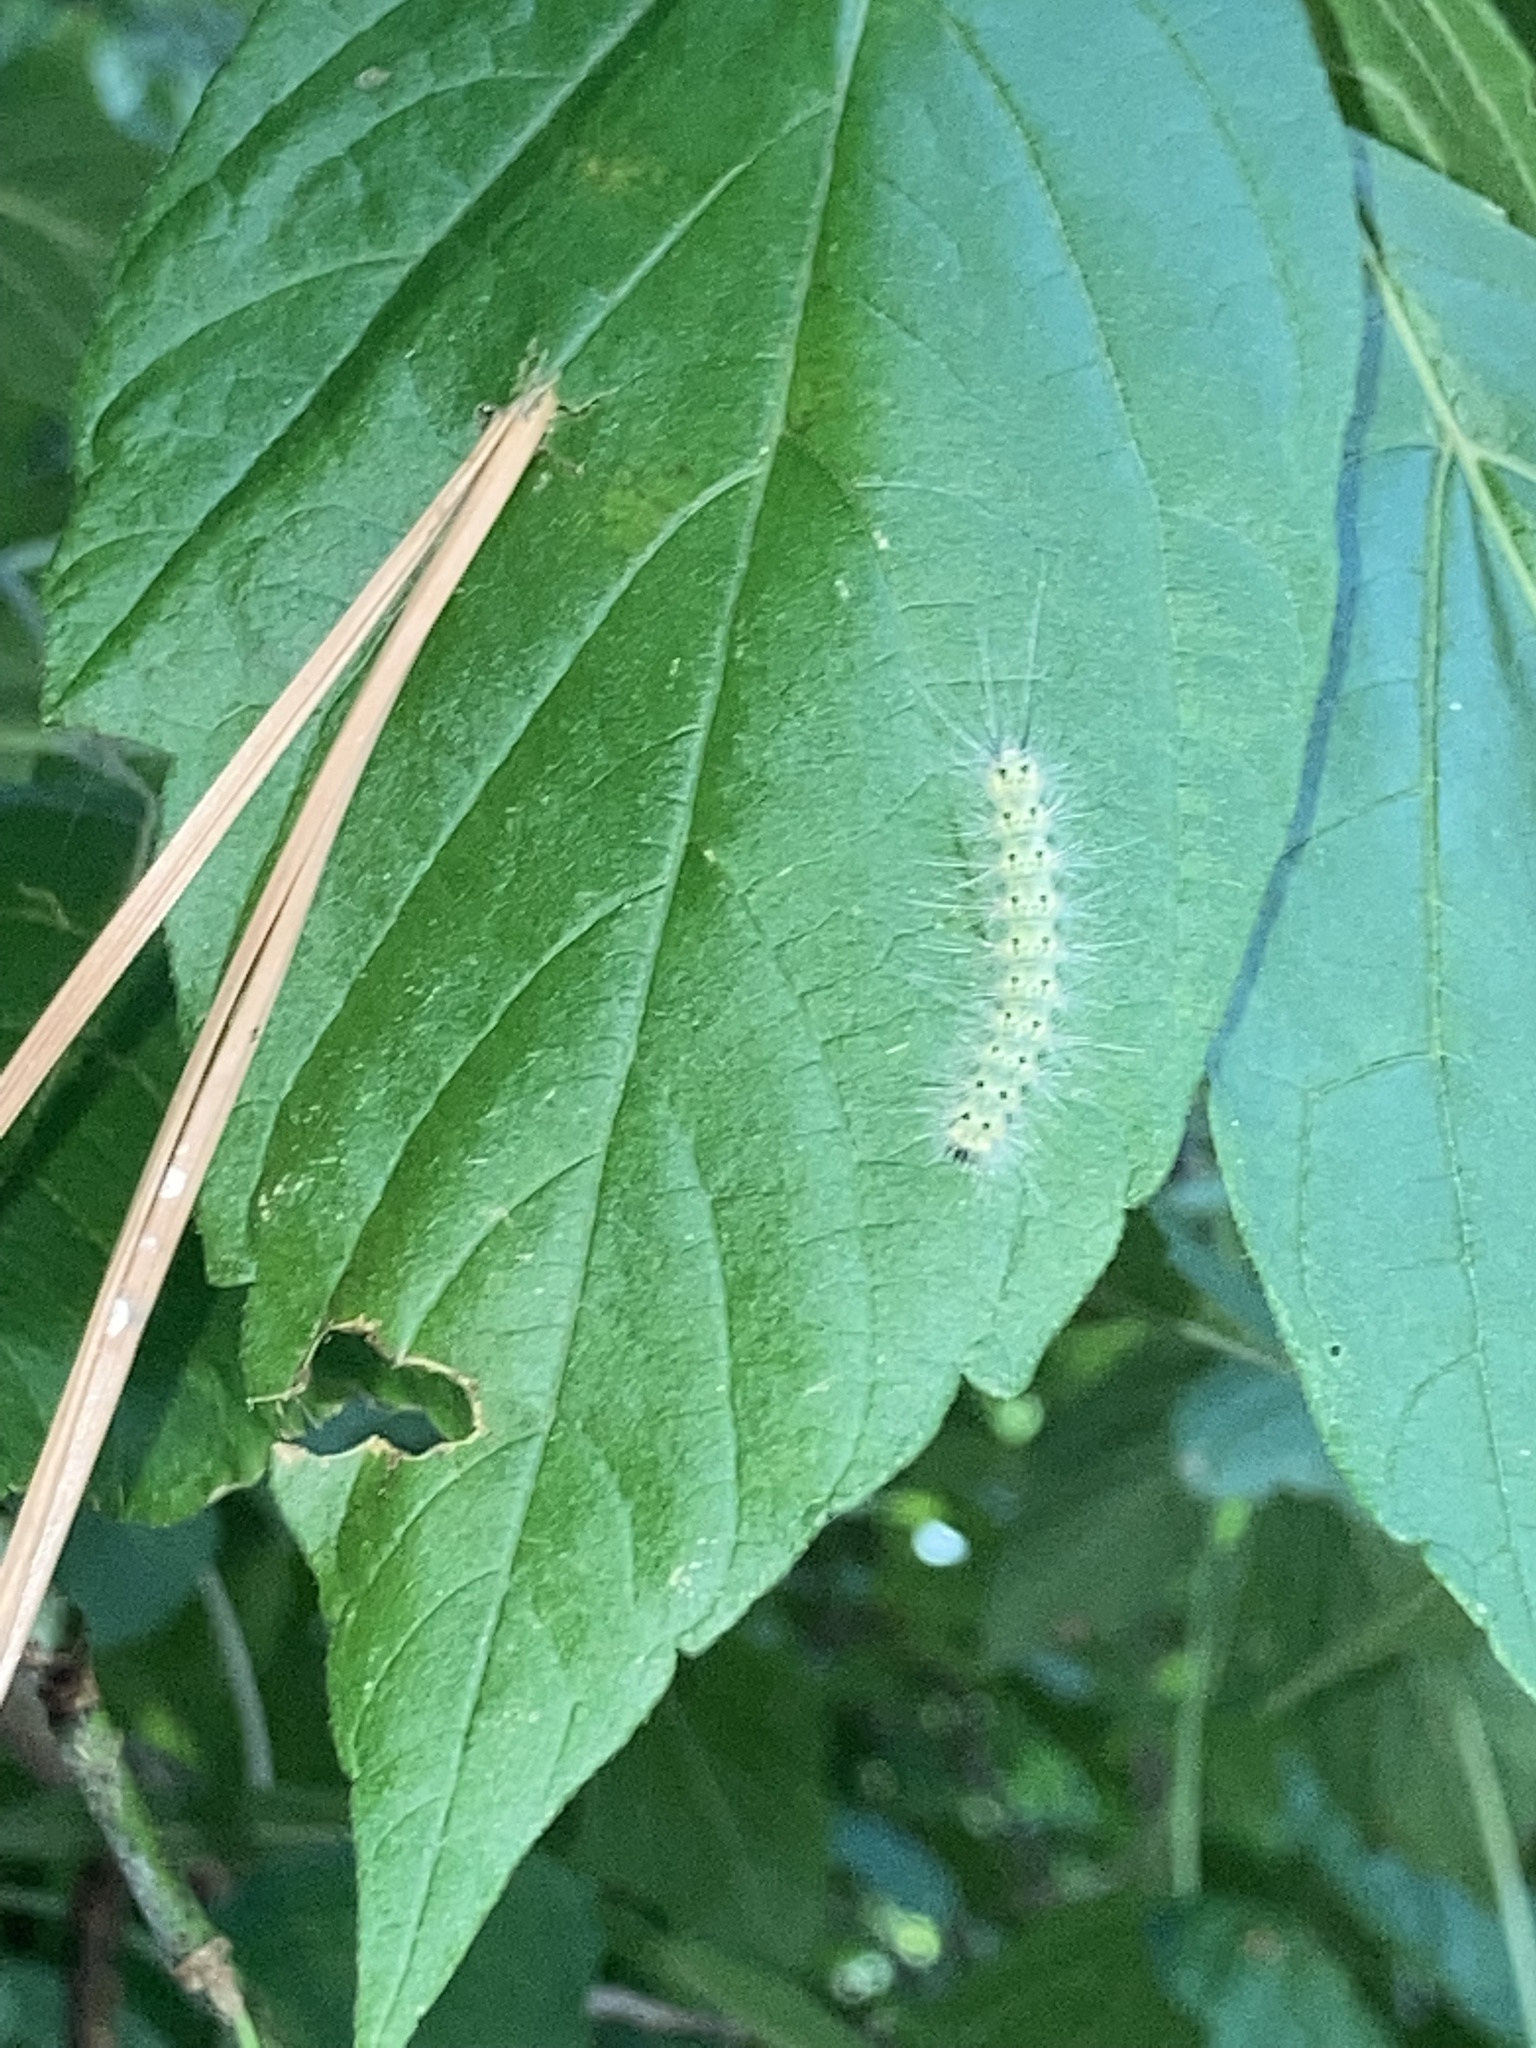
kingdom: Animalia
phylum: Arthropoda
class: Insecta
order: Lepidoptera
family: Erebidae
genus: Hyphantria
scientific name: Hyphantria cunea
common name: American white moth
